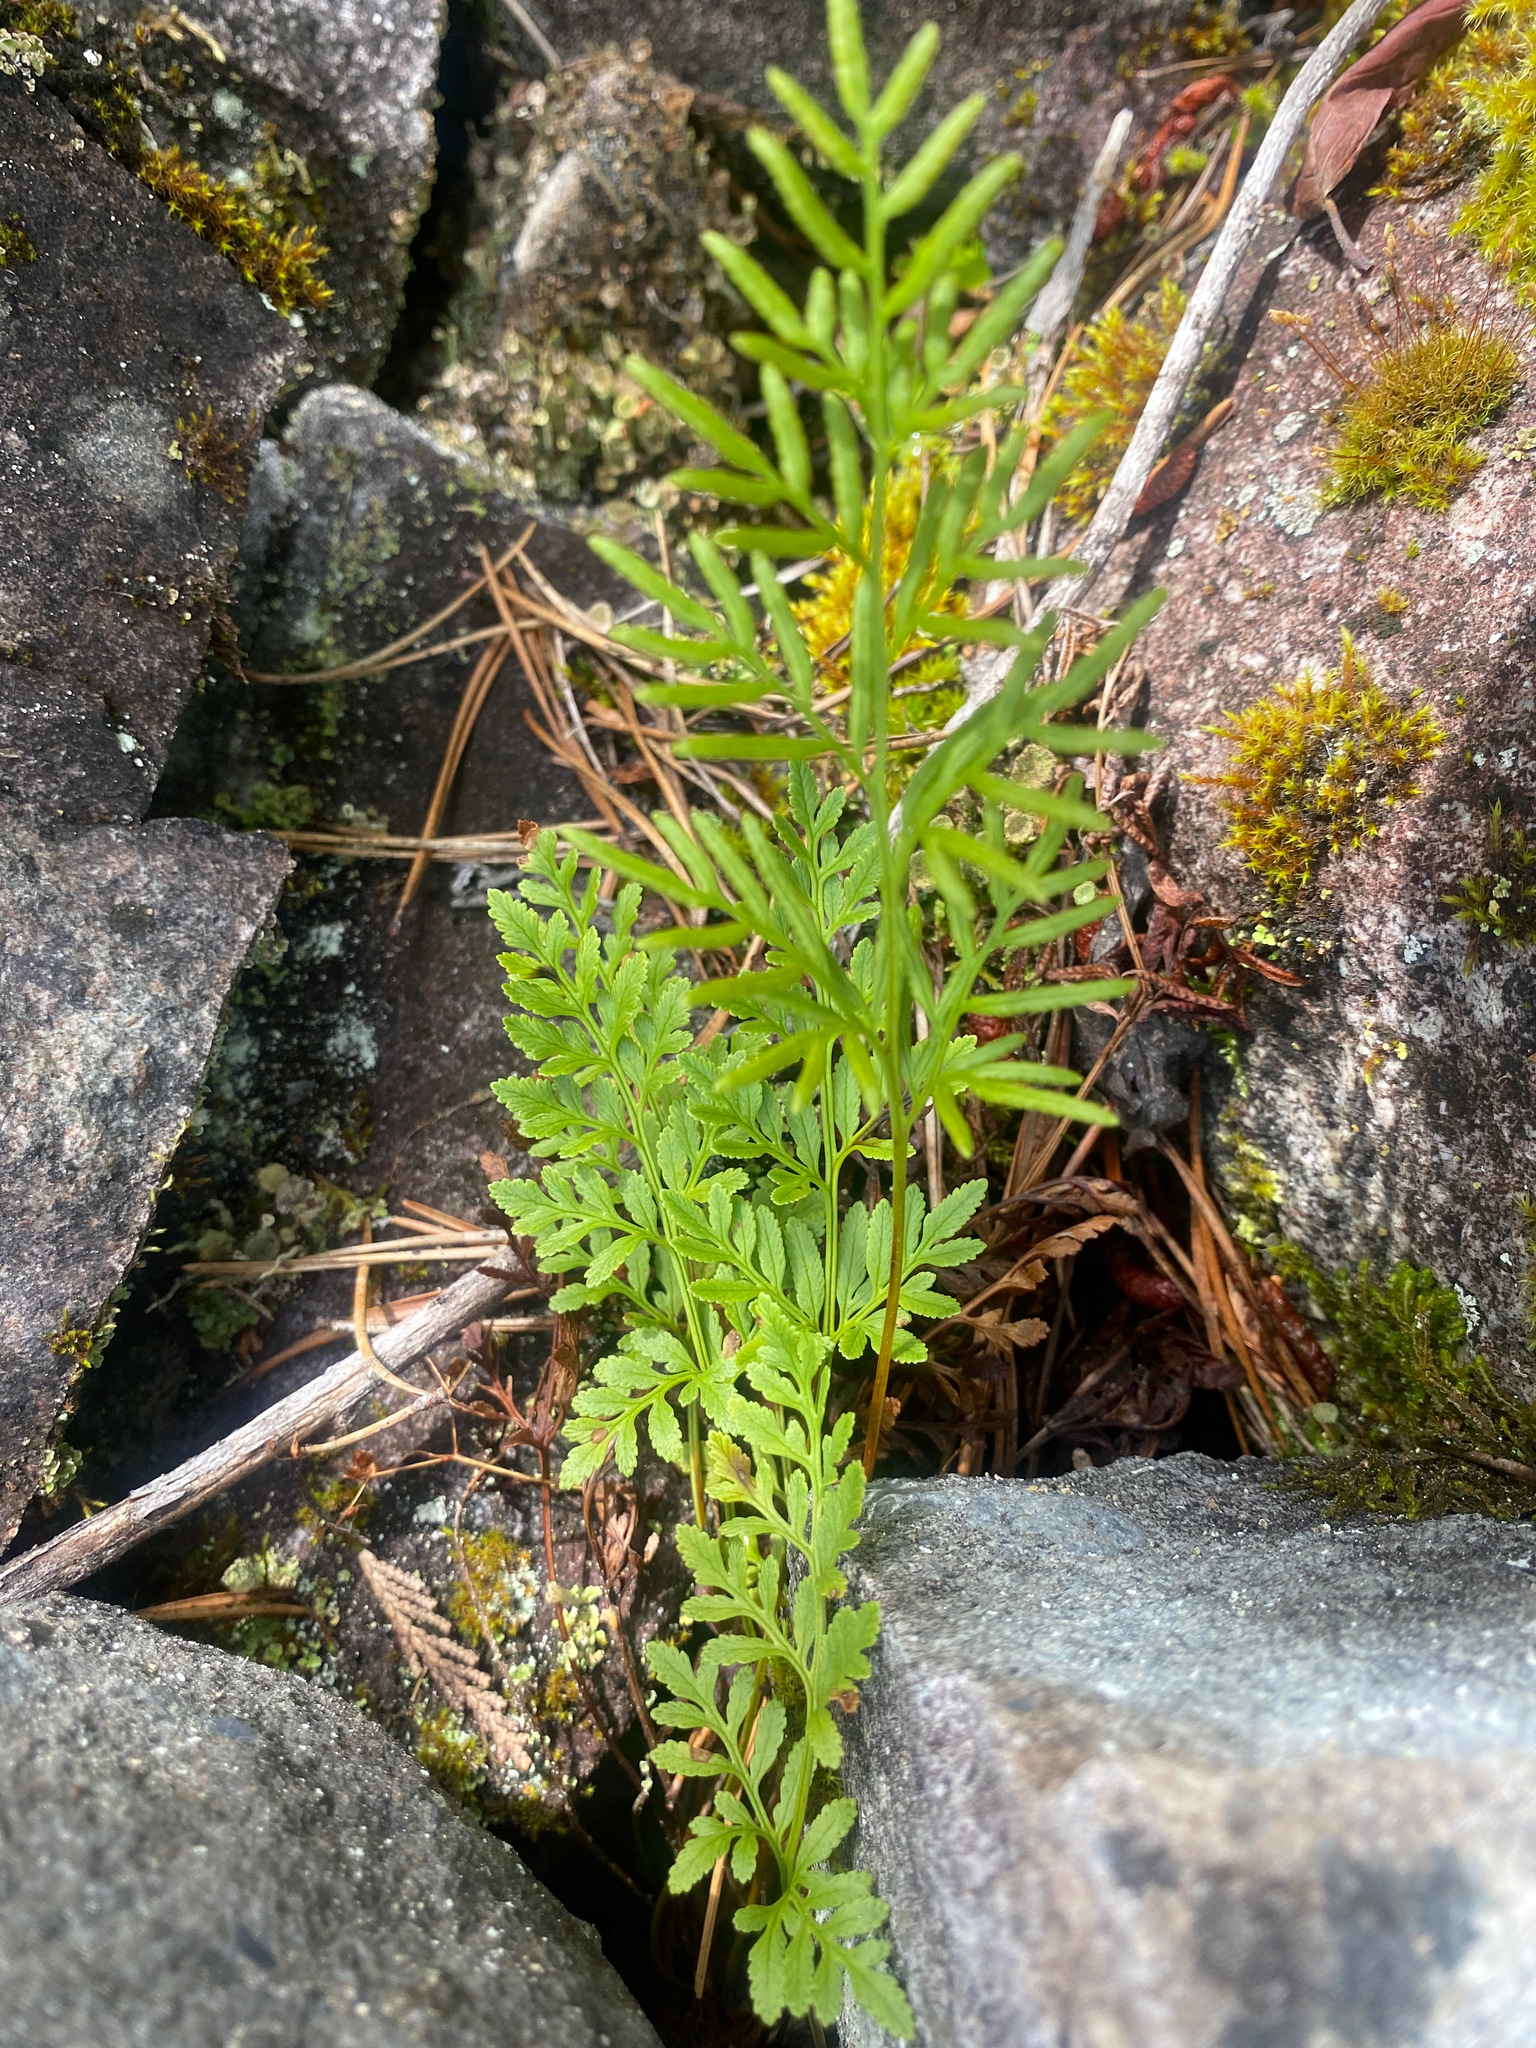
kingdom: Plantae
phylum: Tracheophyta
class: Polypodiopsida
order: Polypodiales
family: Pteridaceae
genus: Cryptogramma
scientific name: Cryptogramma acrostichoides
